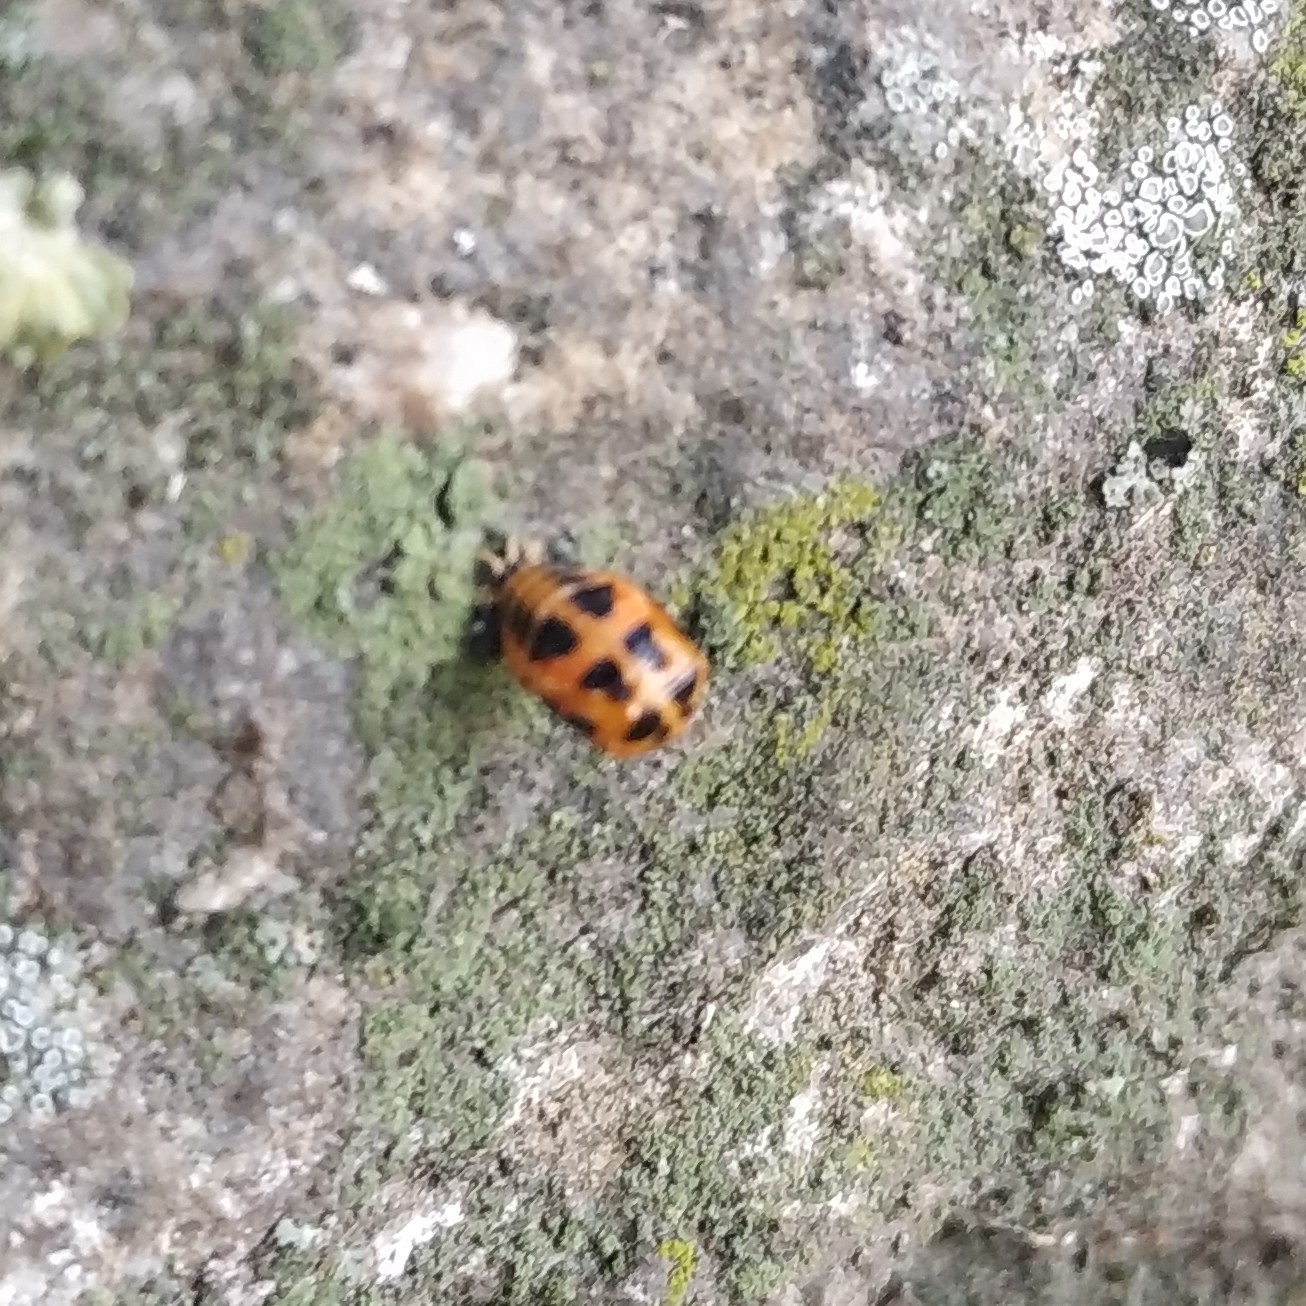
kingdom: Animalia
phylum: Arthropoda
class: Insecta
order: Coleoptera
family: Coccinellidae
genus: Harmonia
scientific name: Harmonia axyridis
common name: Harlequin ladybird
